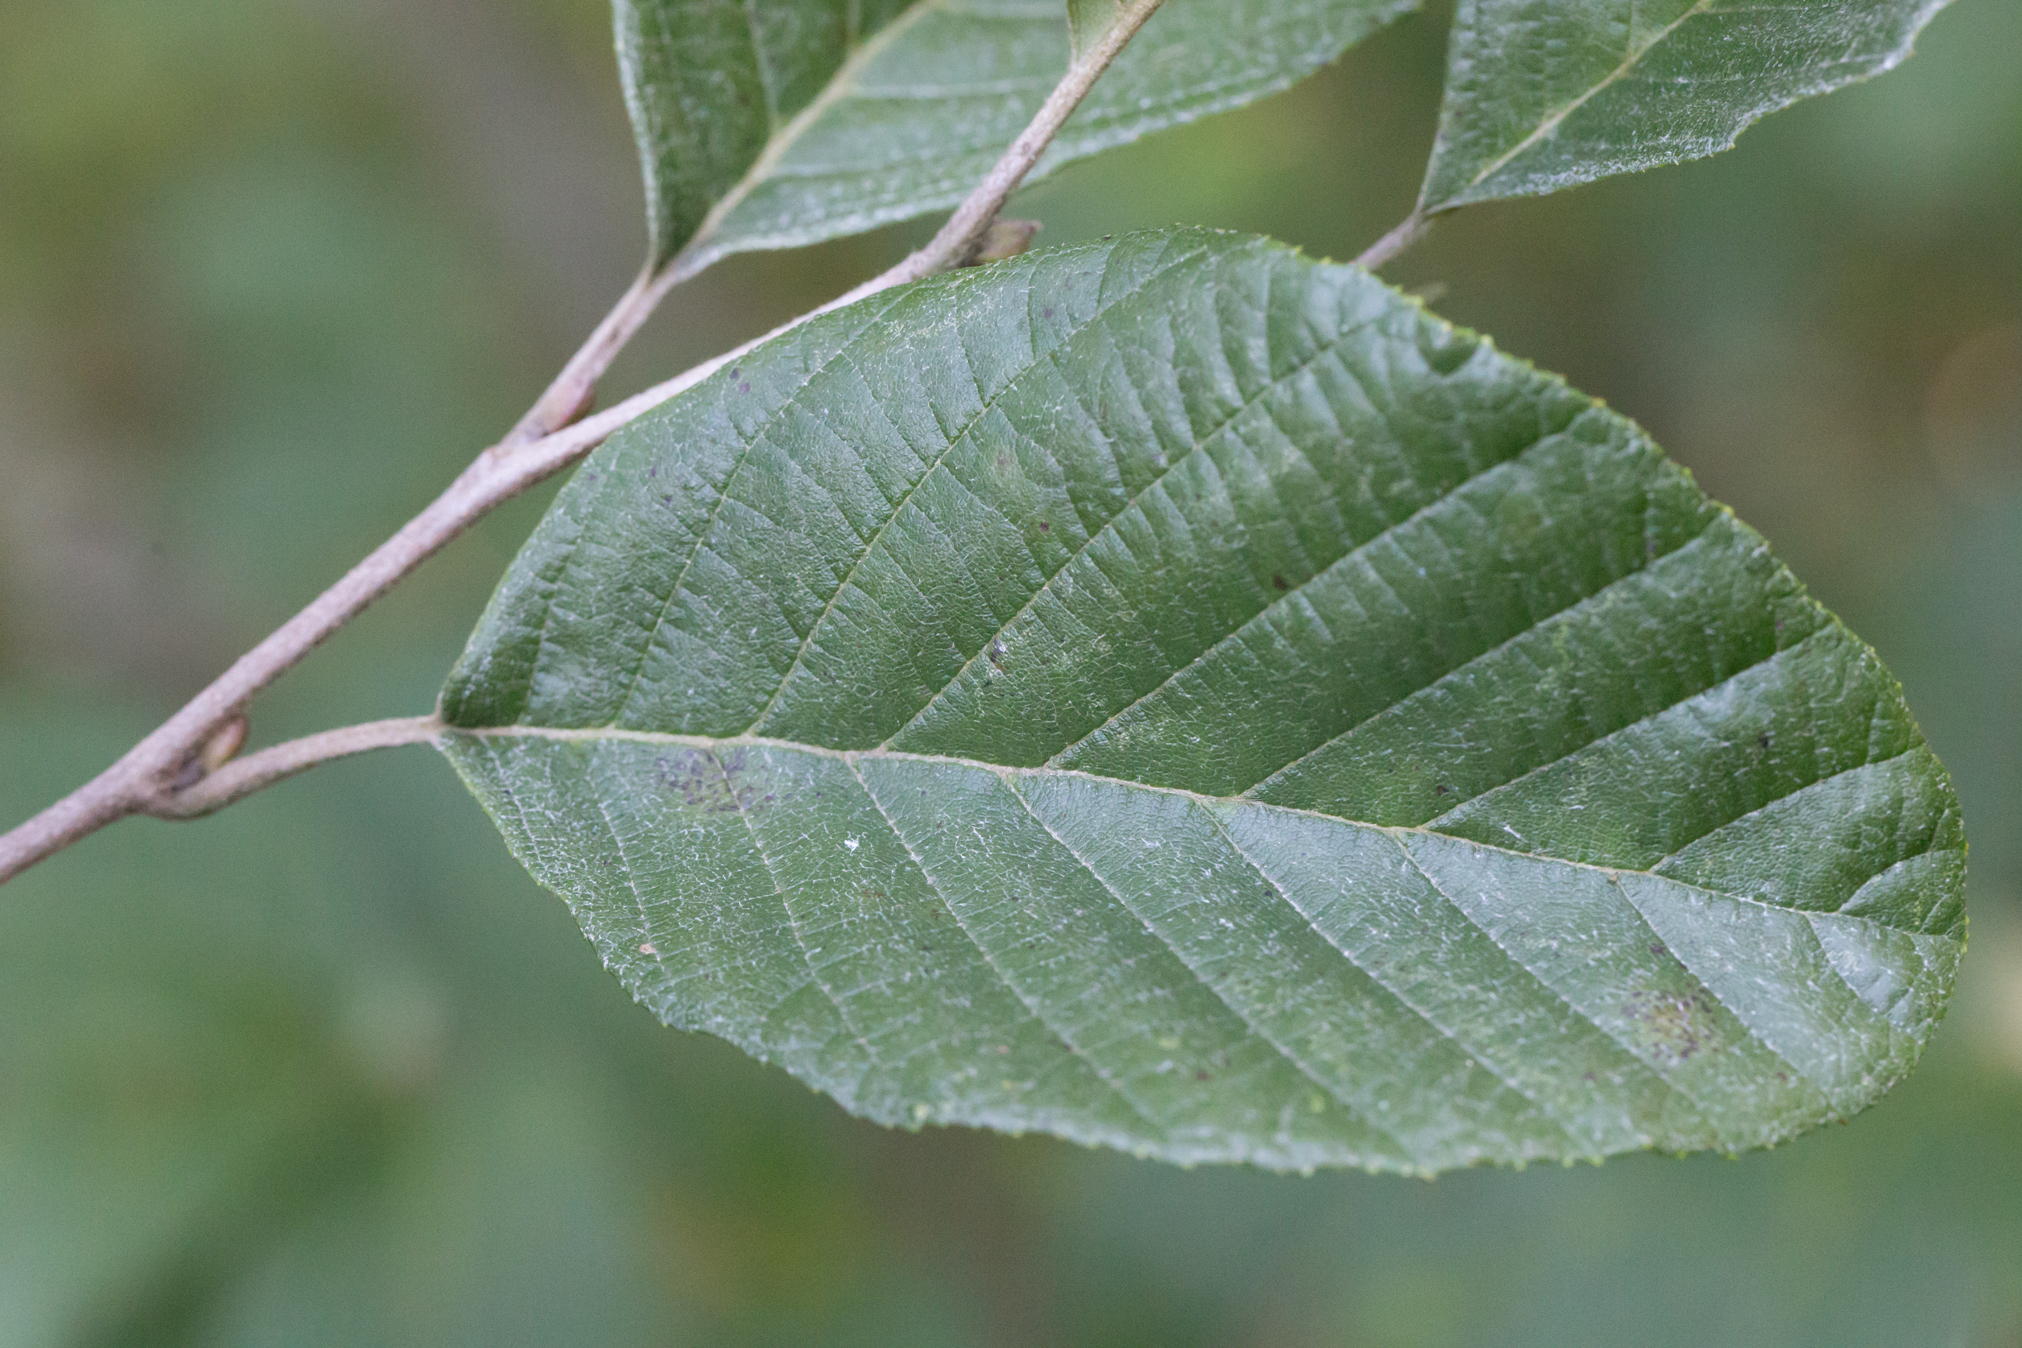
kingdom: Plantae
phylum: Tracheophyta
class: Magnoliopsida
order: Fagales
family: Betulaceae
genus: Alnus
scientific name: Alnus serrulata
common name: Hazel alder
